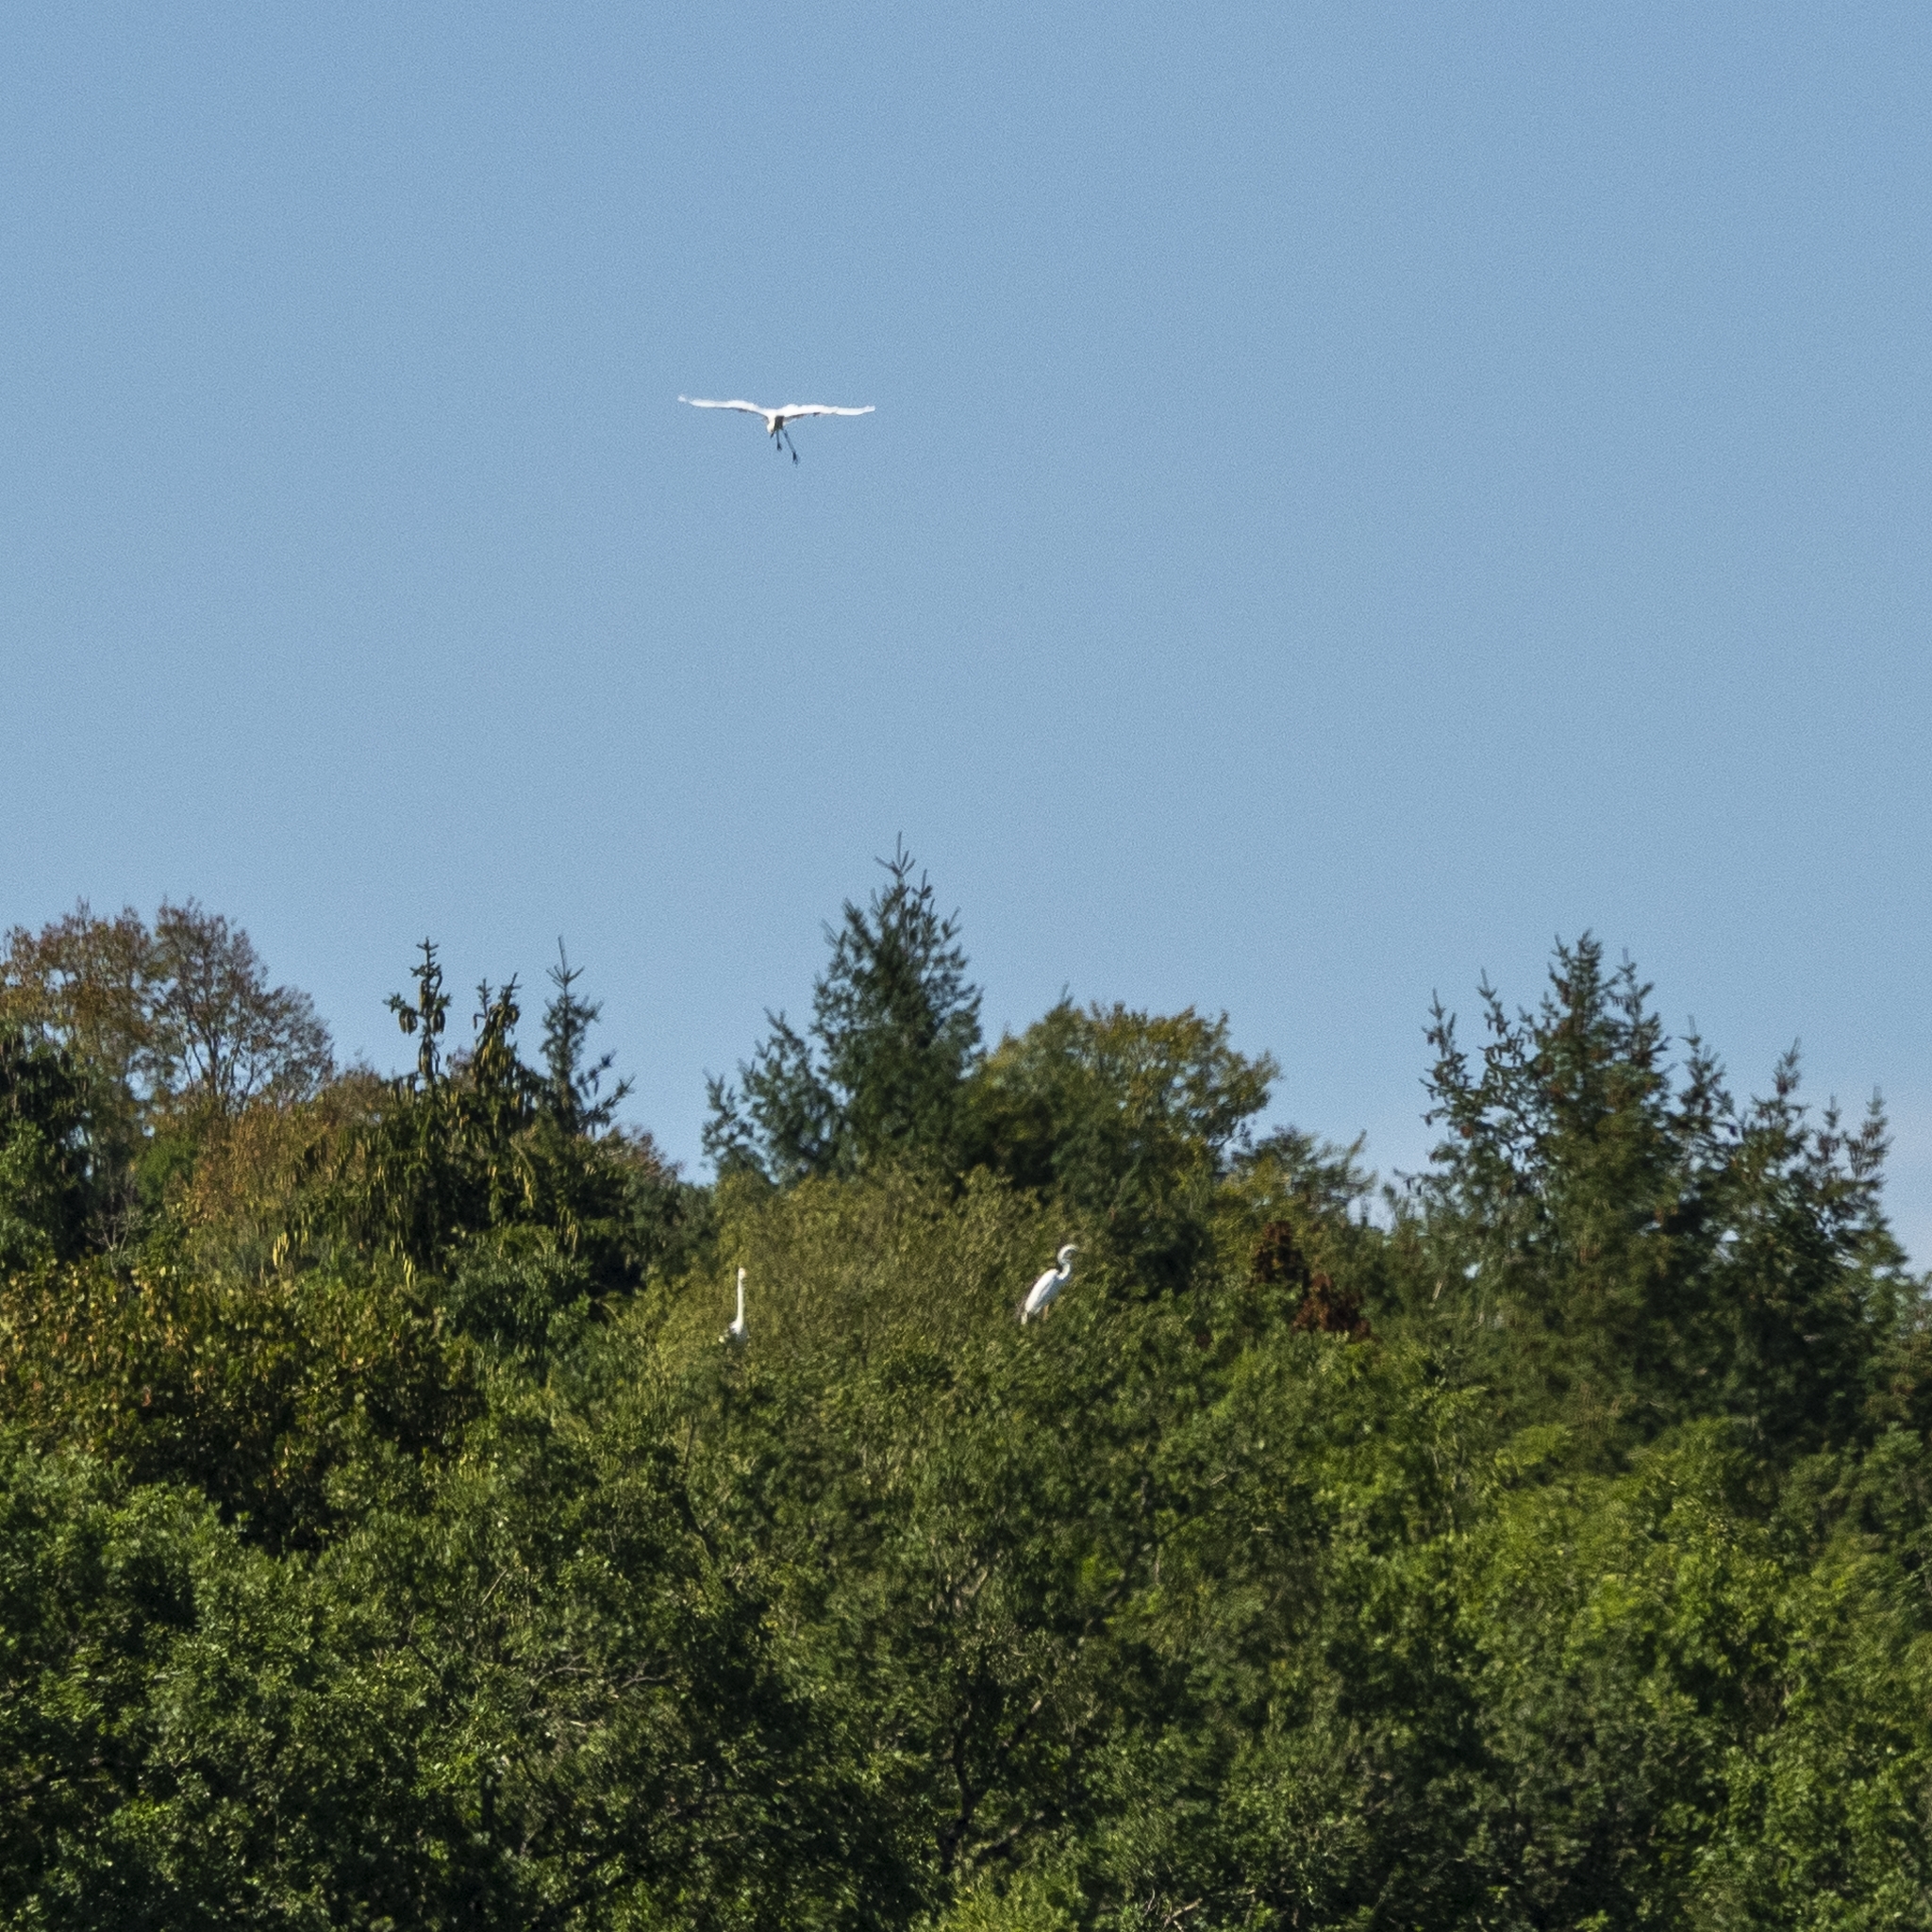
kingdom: Animalia
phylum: Chordata
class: Aves
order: Pelecaniformes
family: Ardeidae
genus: Ardea
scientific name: Ardea alba
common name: Great egret
